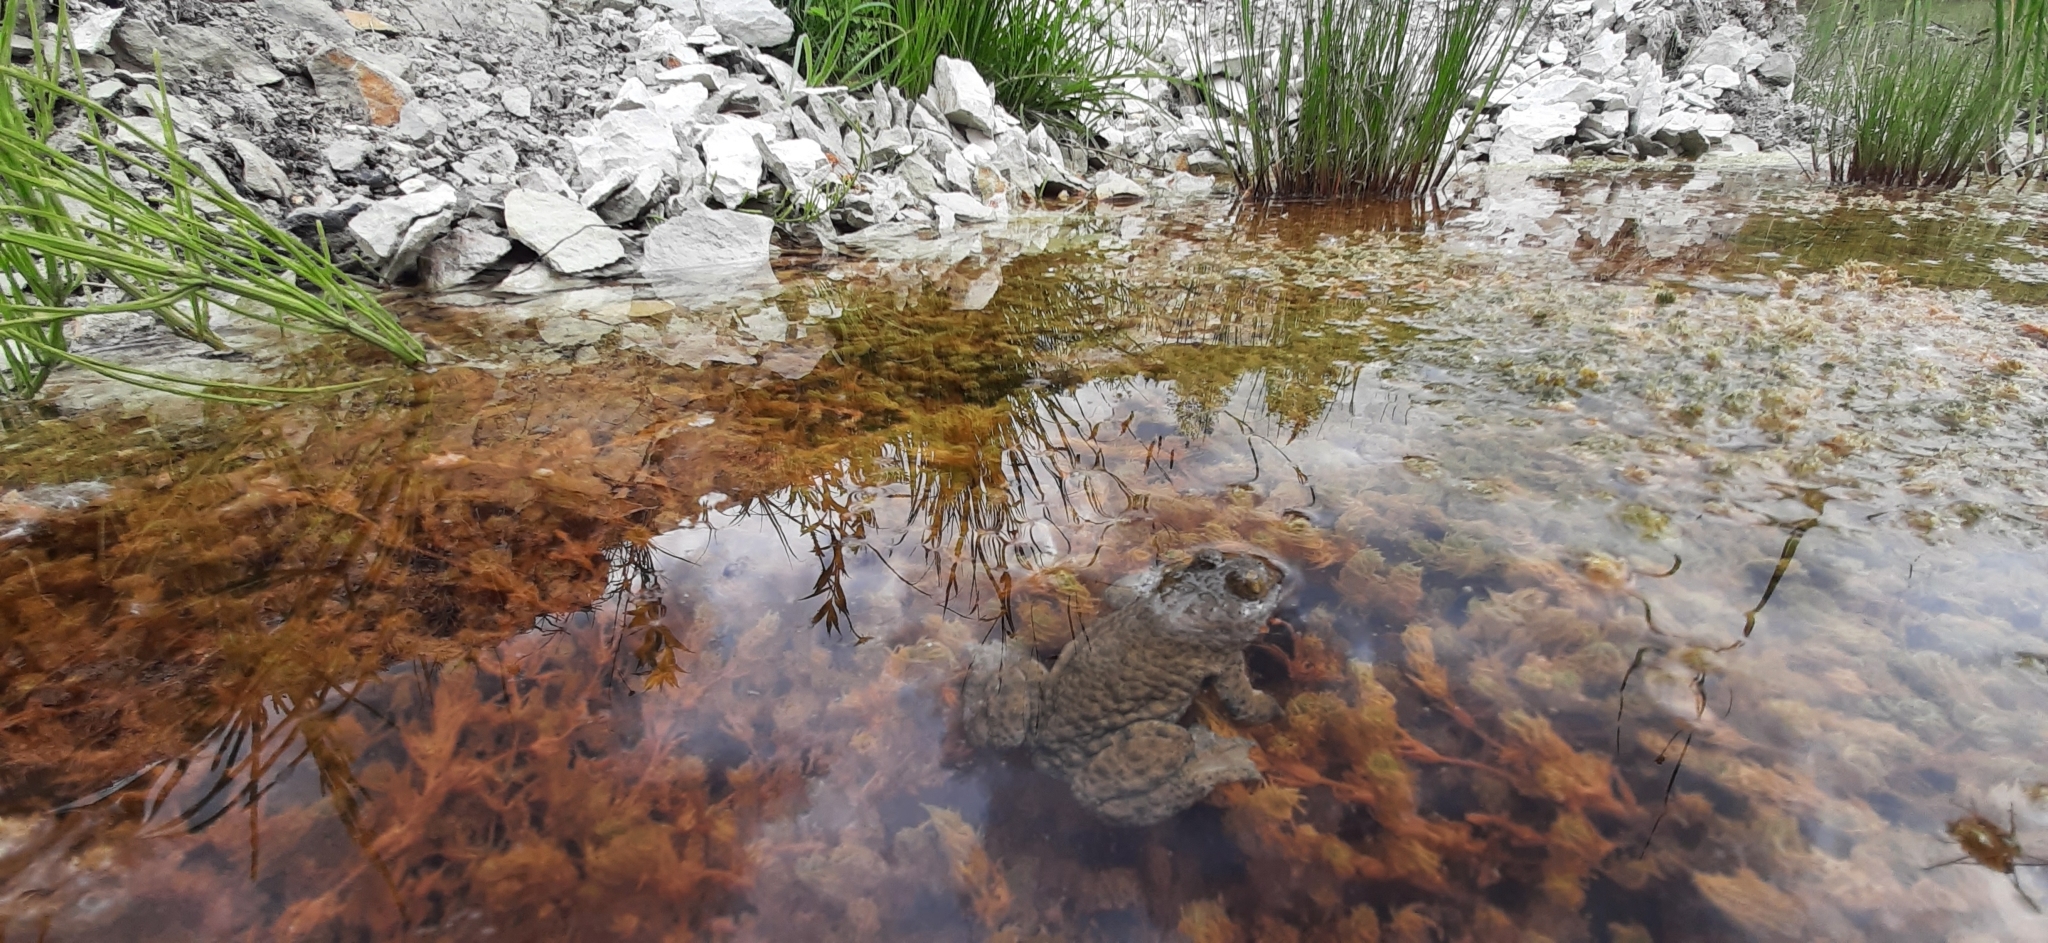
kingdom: Animalia
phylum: Chordata
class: Amphibia
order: Anura
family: Bombinatoridae
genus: Bombina
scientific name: Bombina variegata
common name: Yellow-bellied toad
